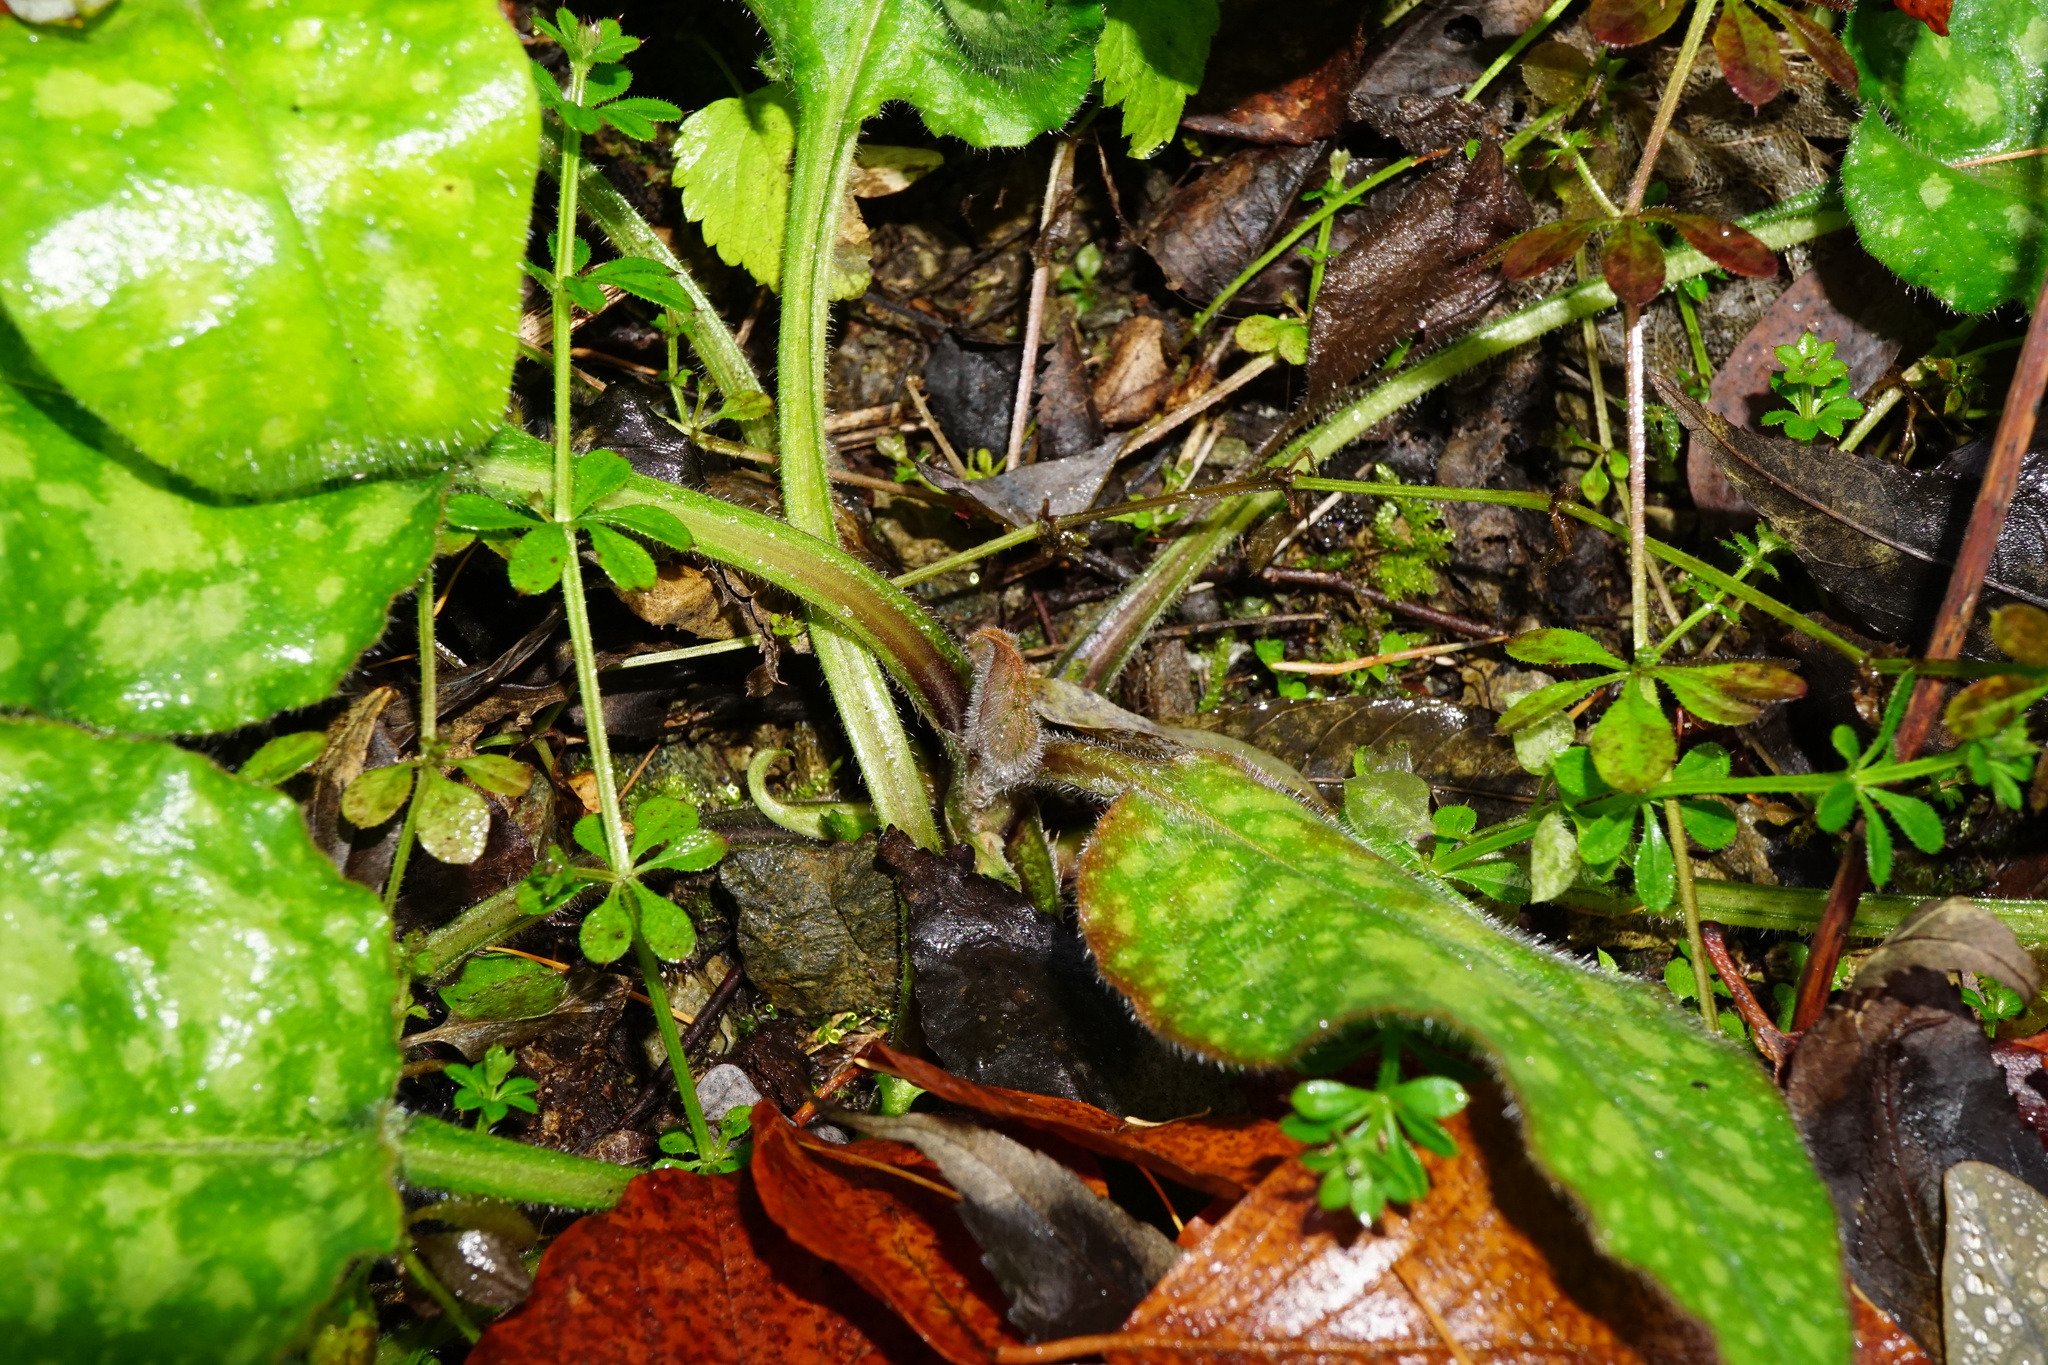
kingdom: Plantae
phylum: Tracheophyta
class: Magnoliopsida
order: Boraginales
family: Boraginaceae
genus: Pulmonaria
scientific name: Pulmonaria officinalis
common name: Lungwort
